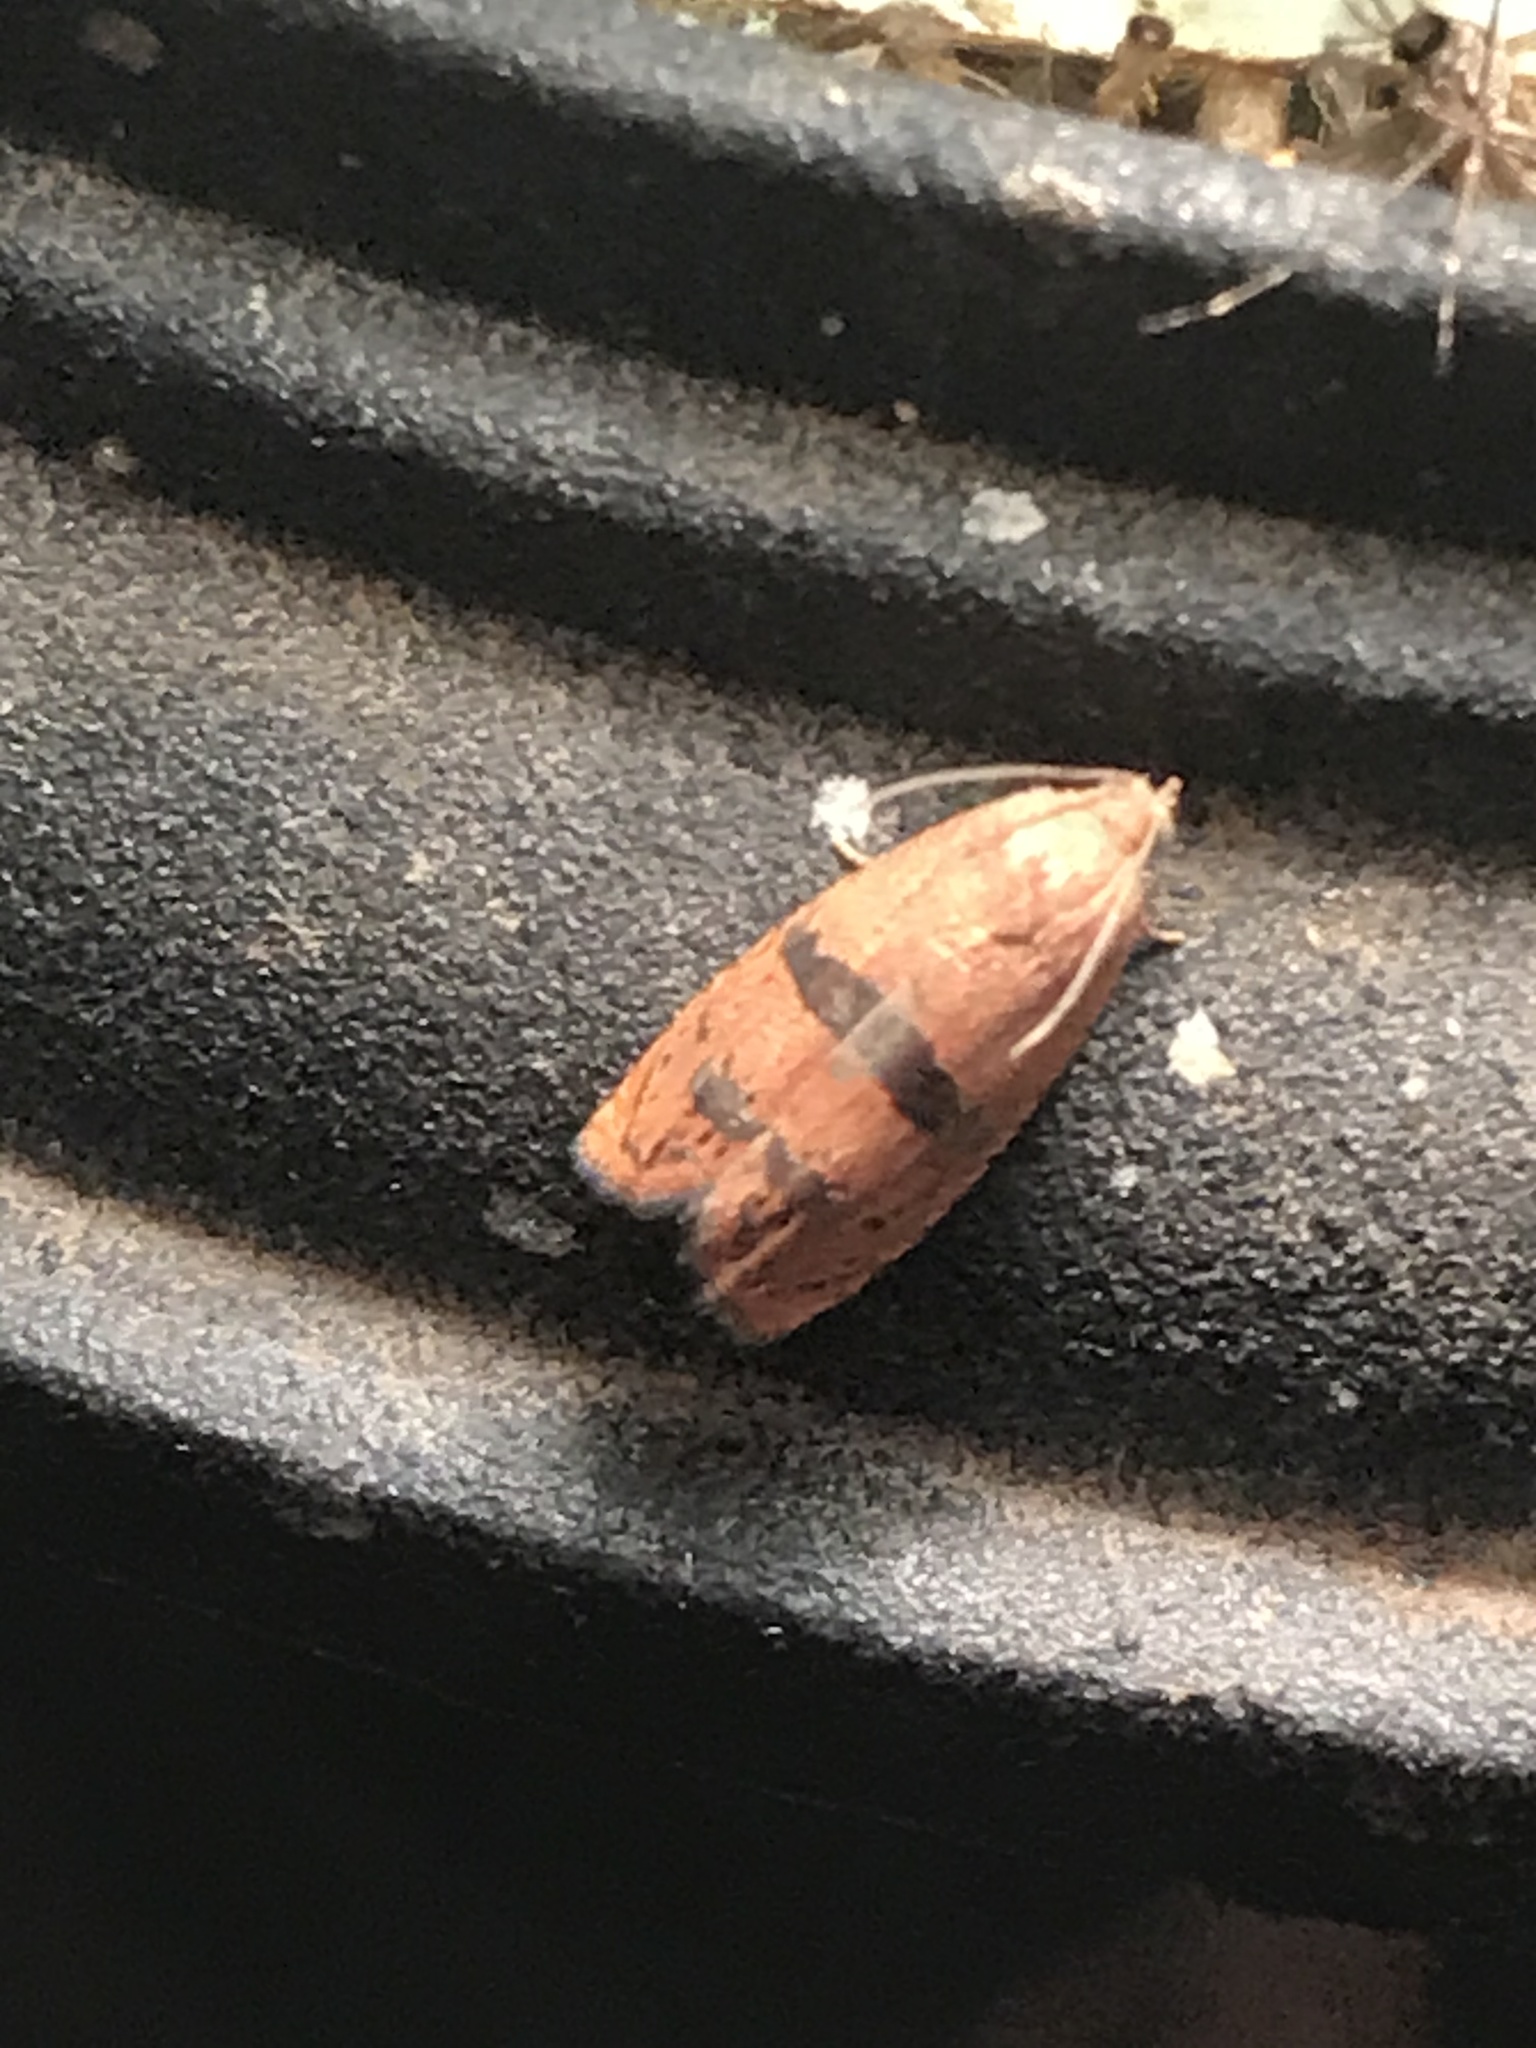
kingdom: Animalia
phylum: Arthropoda
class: Insecta
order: Lepidoptera
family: Tortricidae
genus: Cydia
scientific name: Cydia latiferreana
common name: Filbertworm moth
